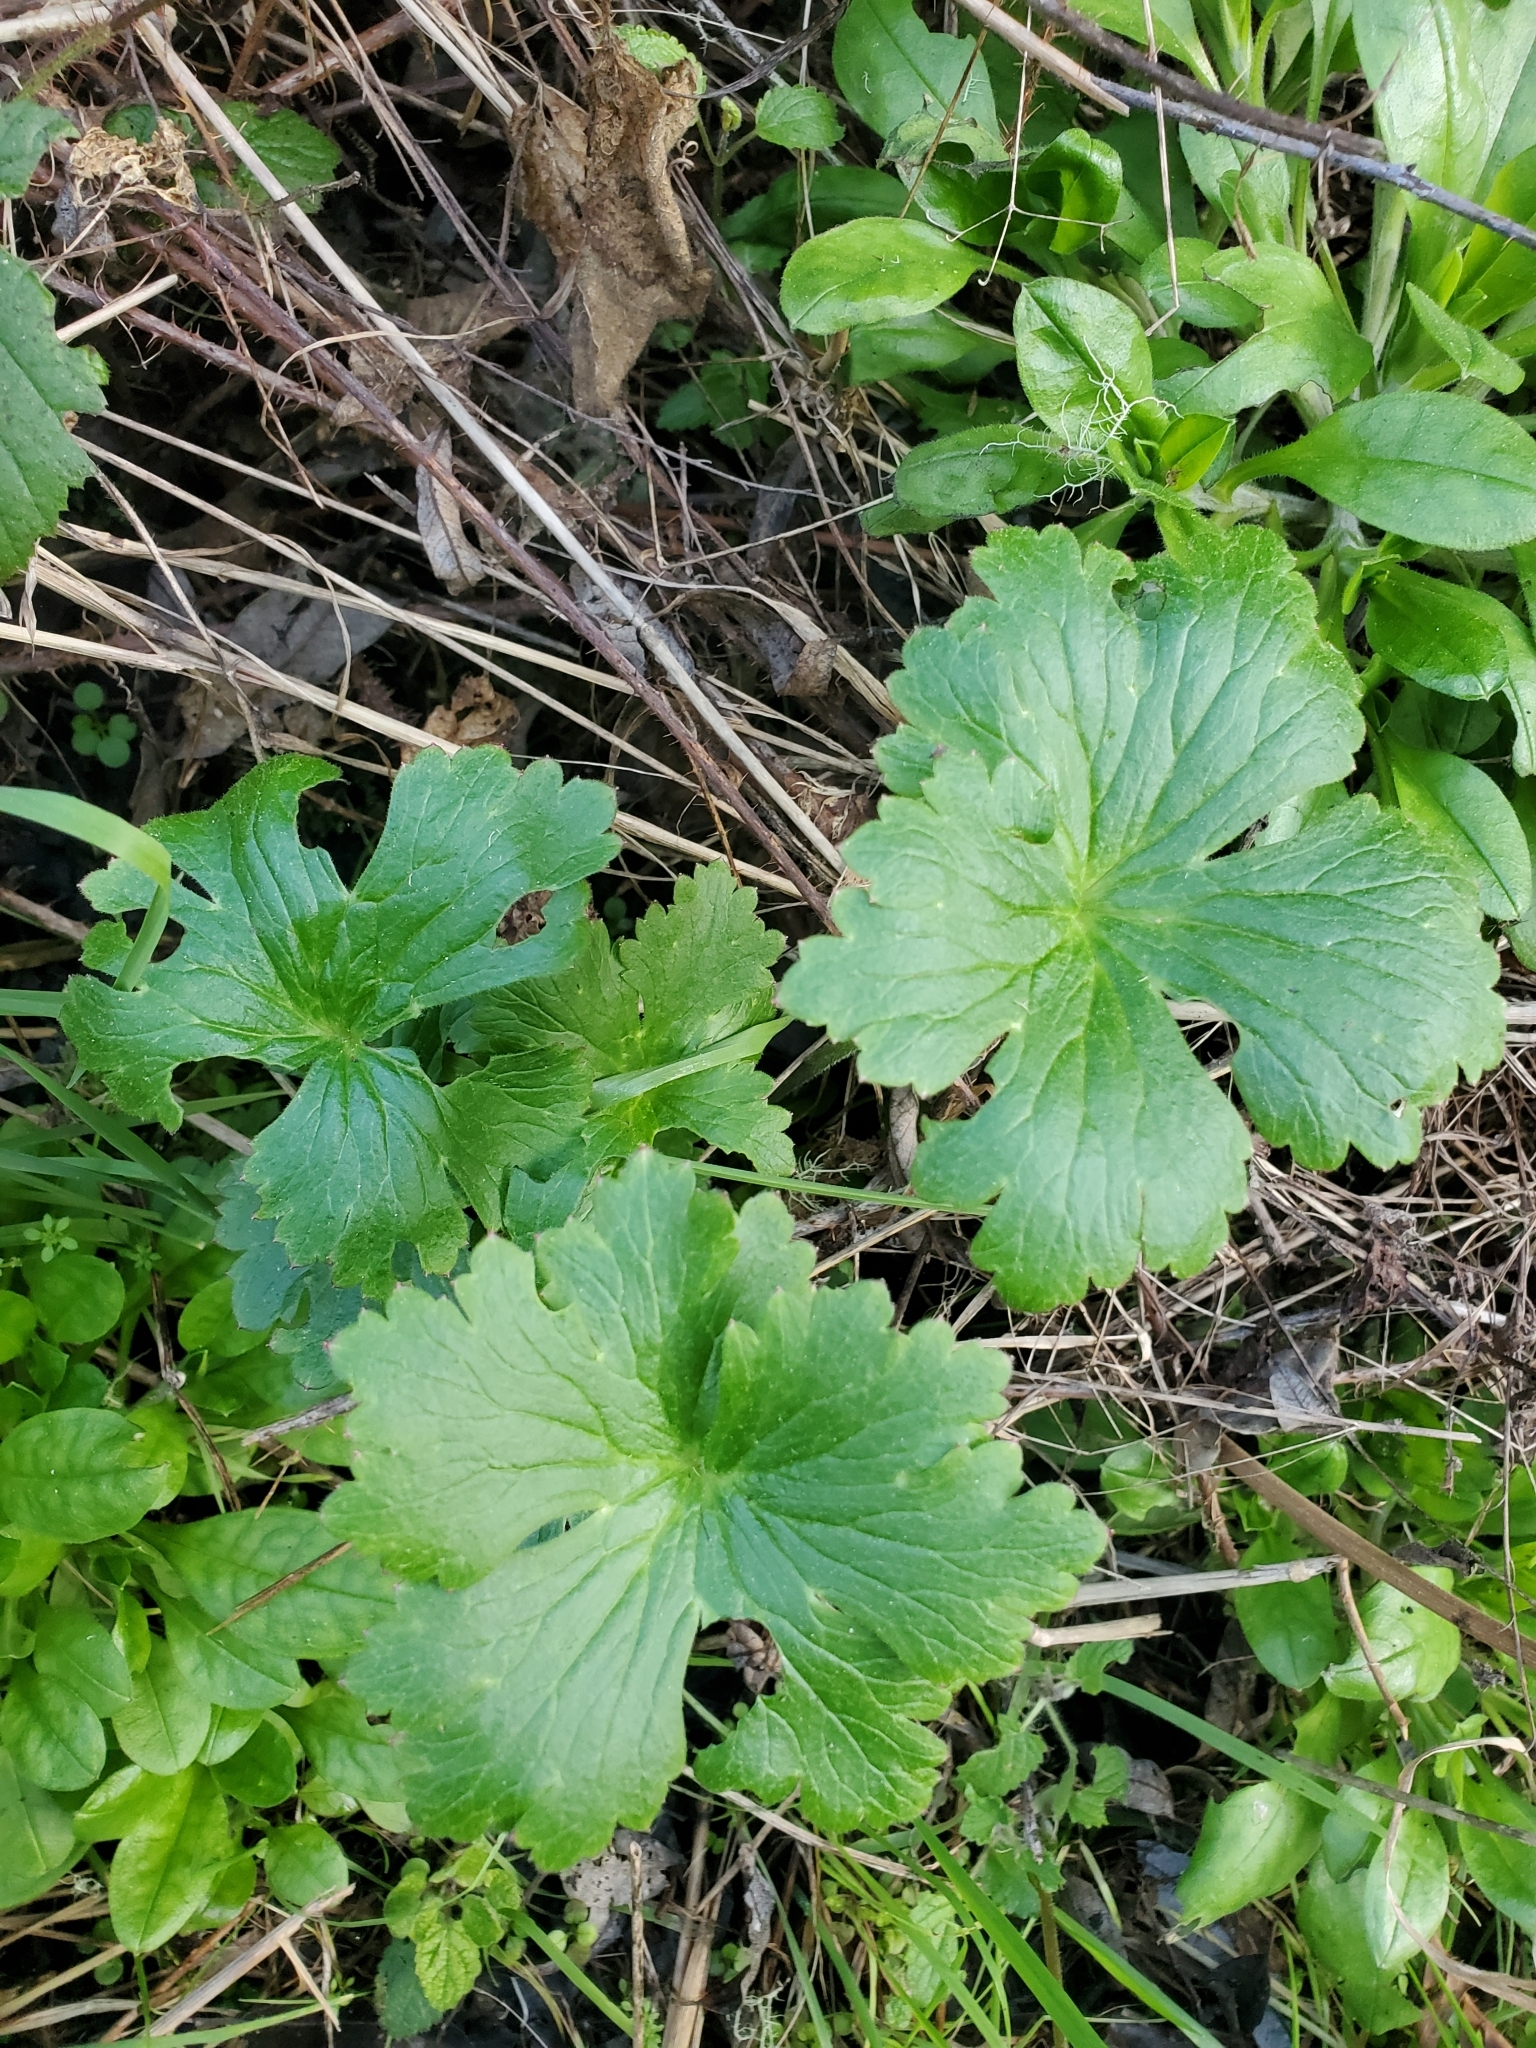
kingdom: Plantae
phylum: Tracheophyta
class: Magnoliopsida
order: Ranunculales
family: Ranunculaceae
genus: Delphinium
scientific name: Delphinium californicum
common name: California larkspur
